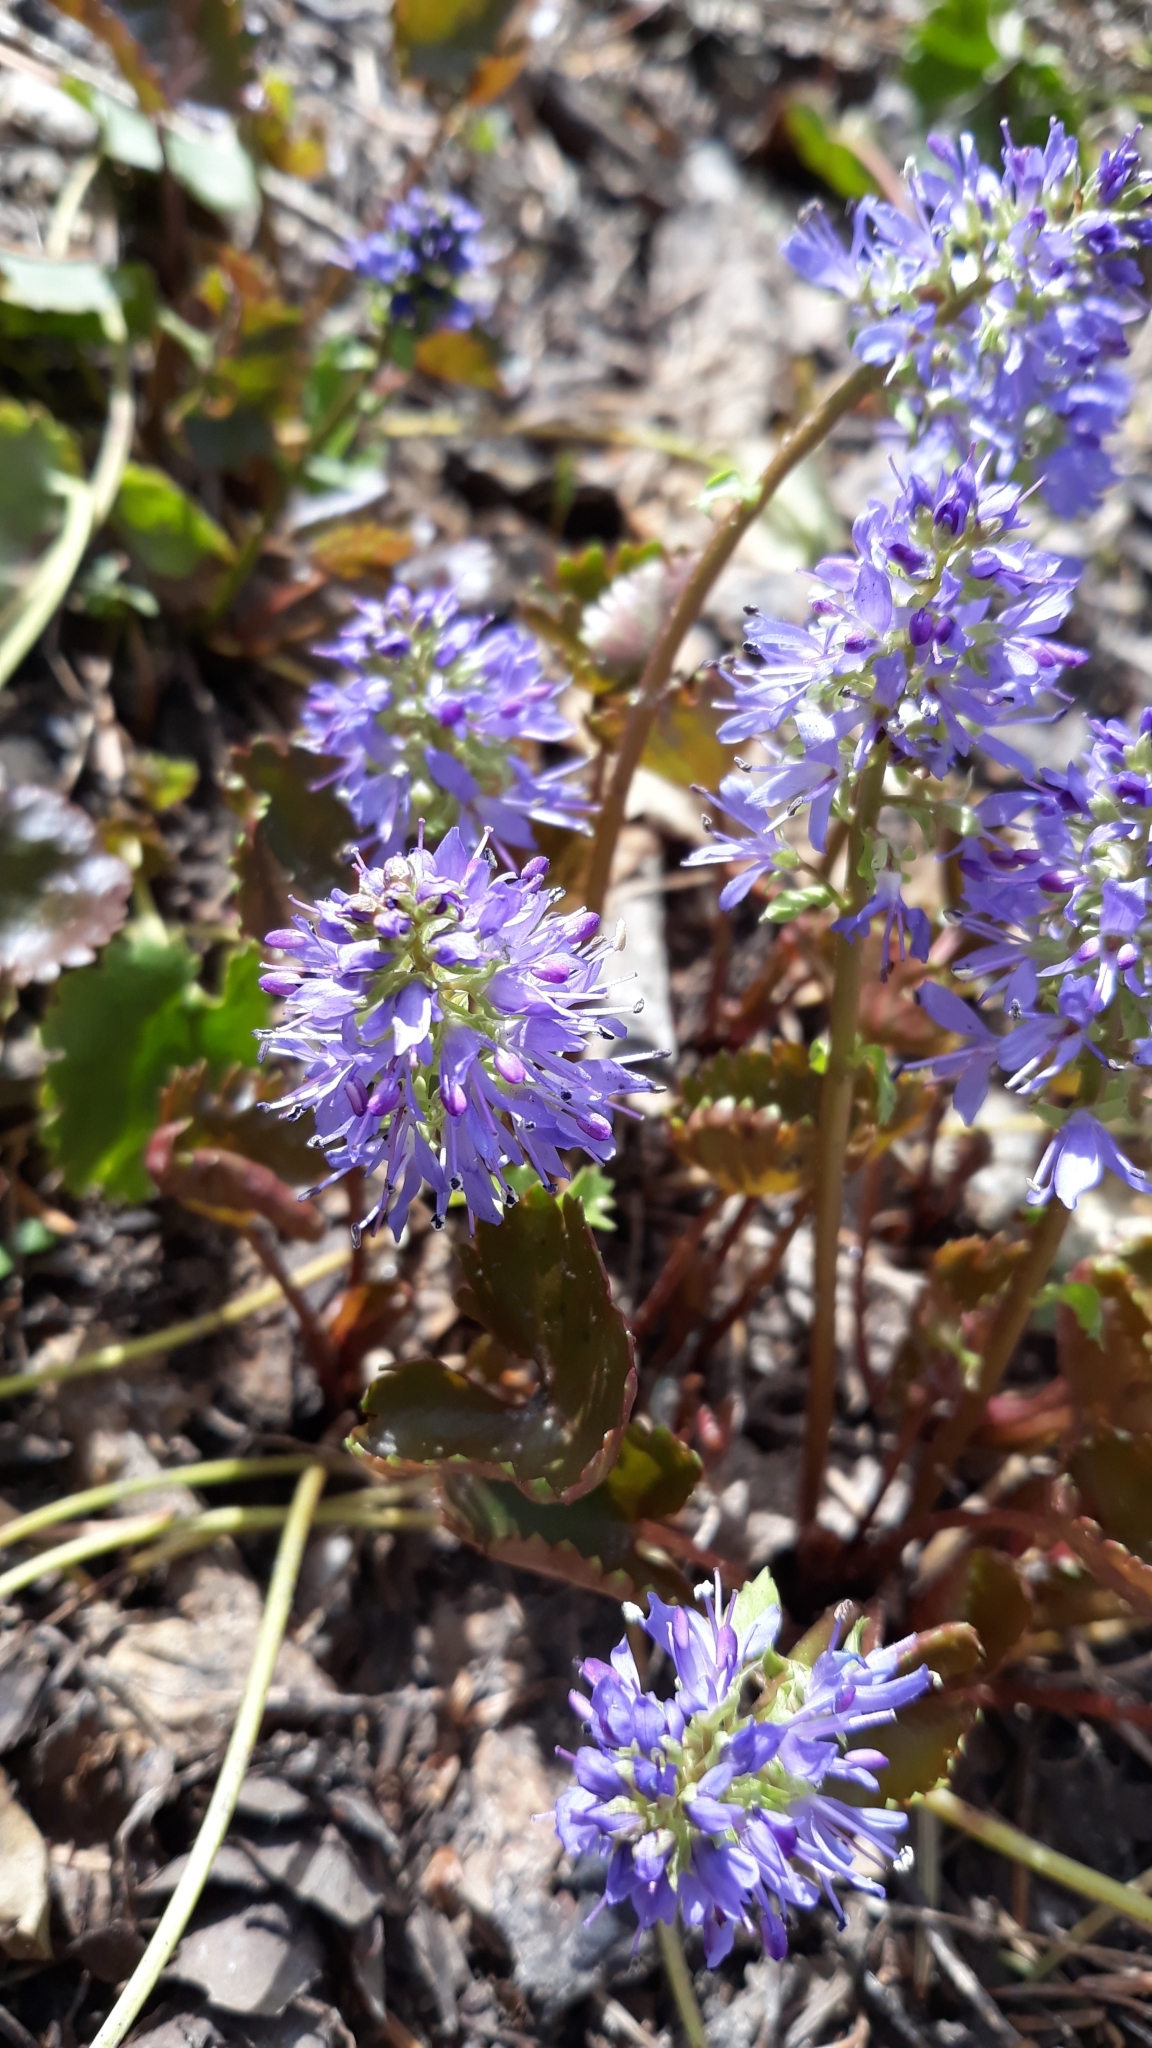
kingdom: Plantae
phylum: Tracheophyta
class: Magnoliopsida
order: Lamiales
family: Plantaginaceae
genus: Synthyris
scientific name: Synthyris missurica
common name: Kitten-tails
